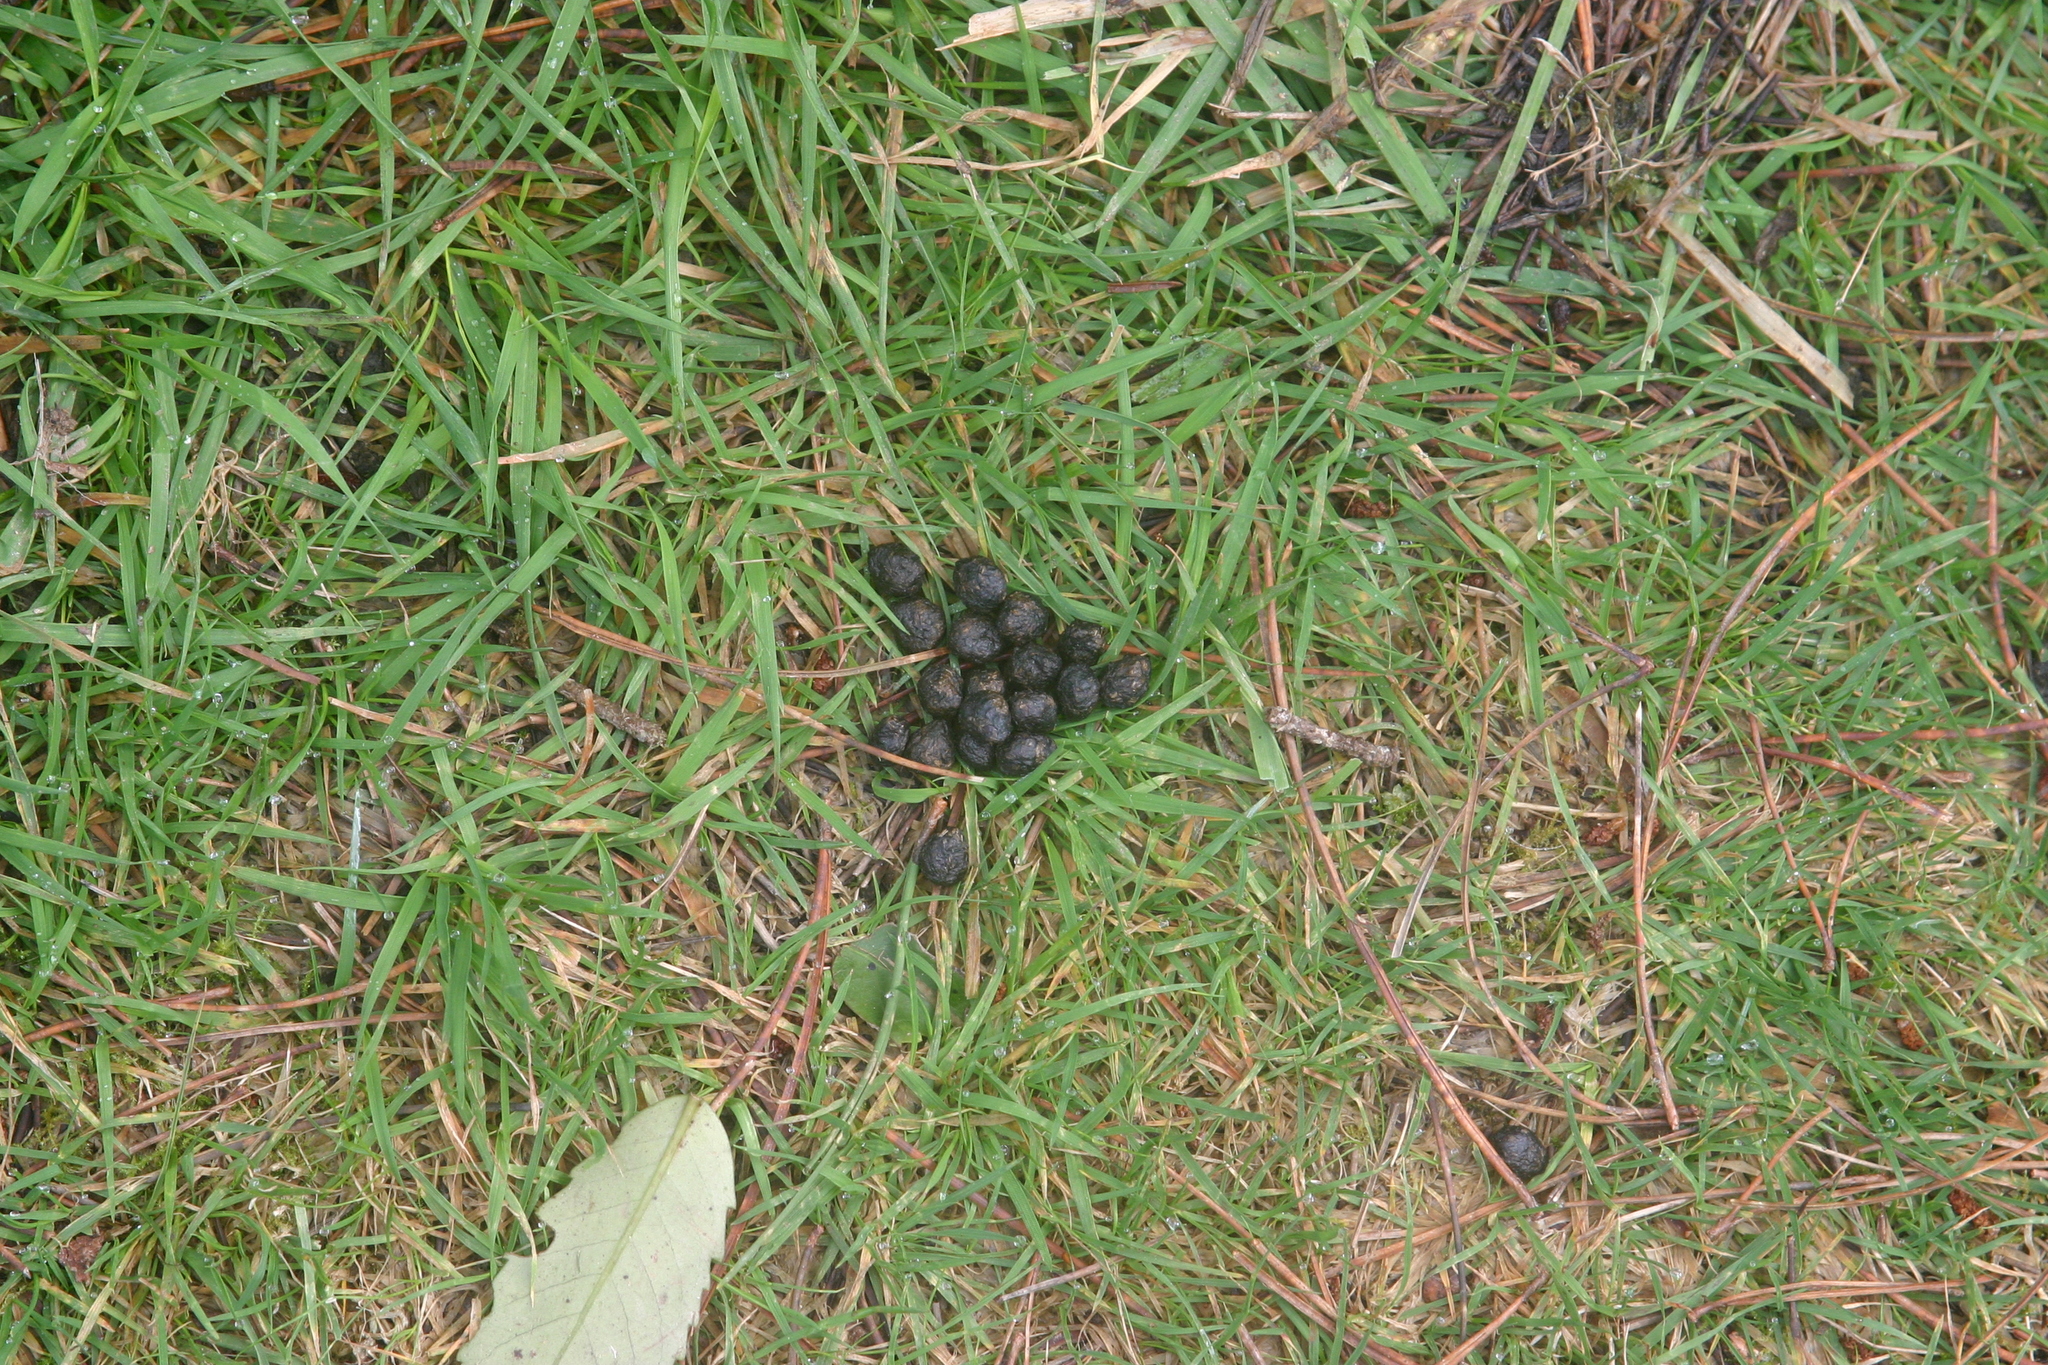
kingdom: Animalia
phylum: Chordata
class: Mammalia
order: Lagomorpha
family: Leporidae
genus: Oryctolagus
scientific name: Oryctolagus cuniculus
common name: European rabbit
